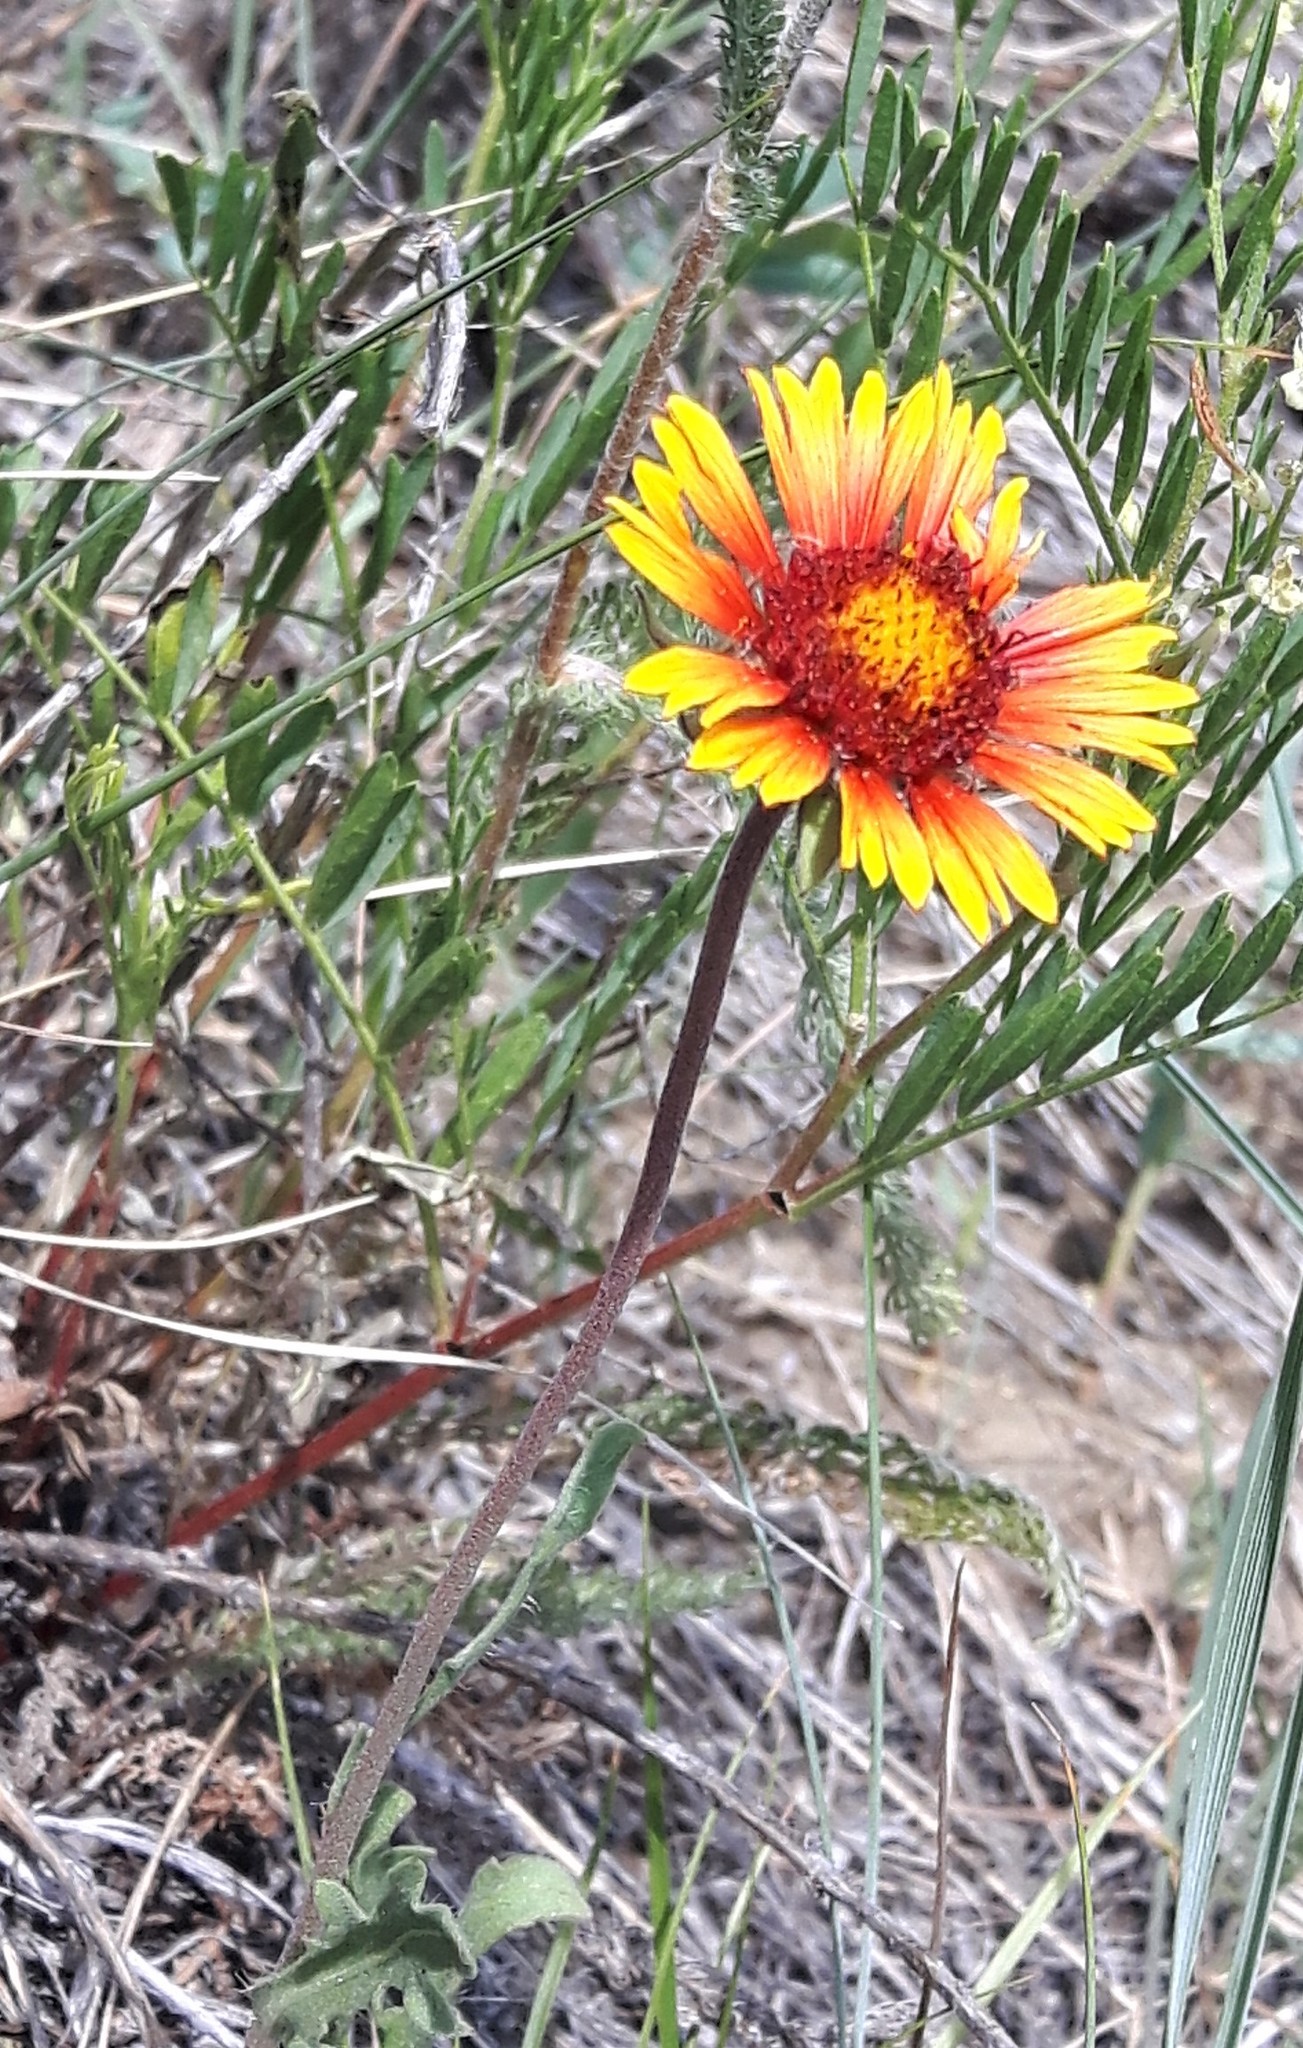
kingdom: Plantae
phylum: Tracheophyta
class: Magnoliopsida
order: Asterales
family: Asteraceae
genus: Gaillardia
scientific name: Gaillardia aristata
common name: Blanket-flower
